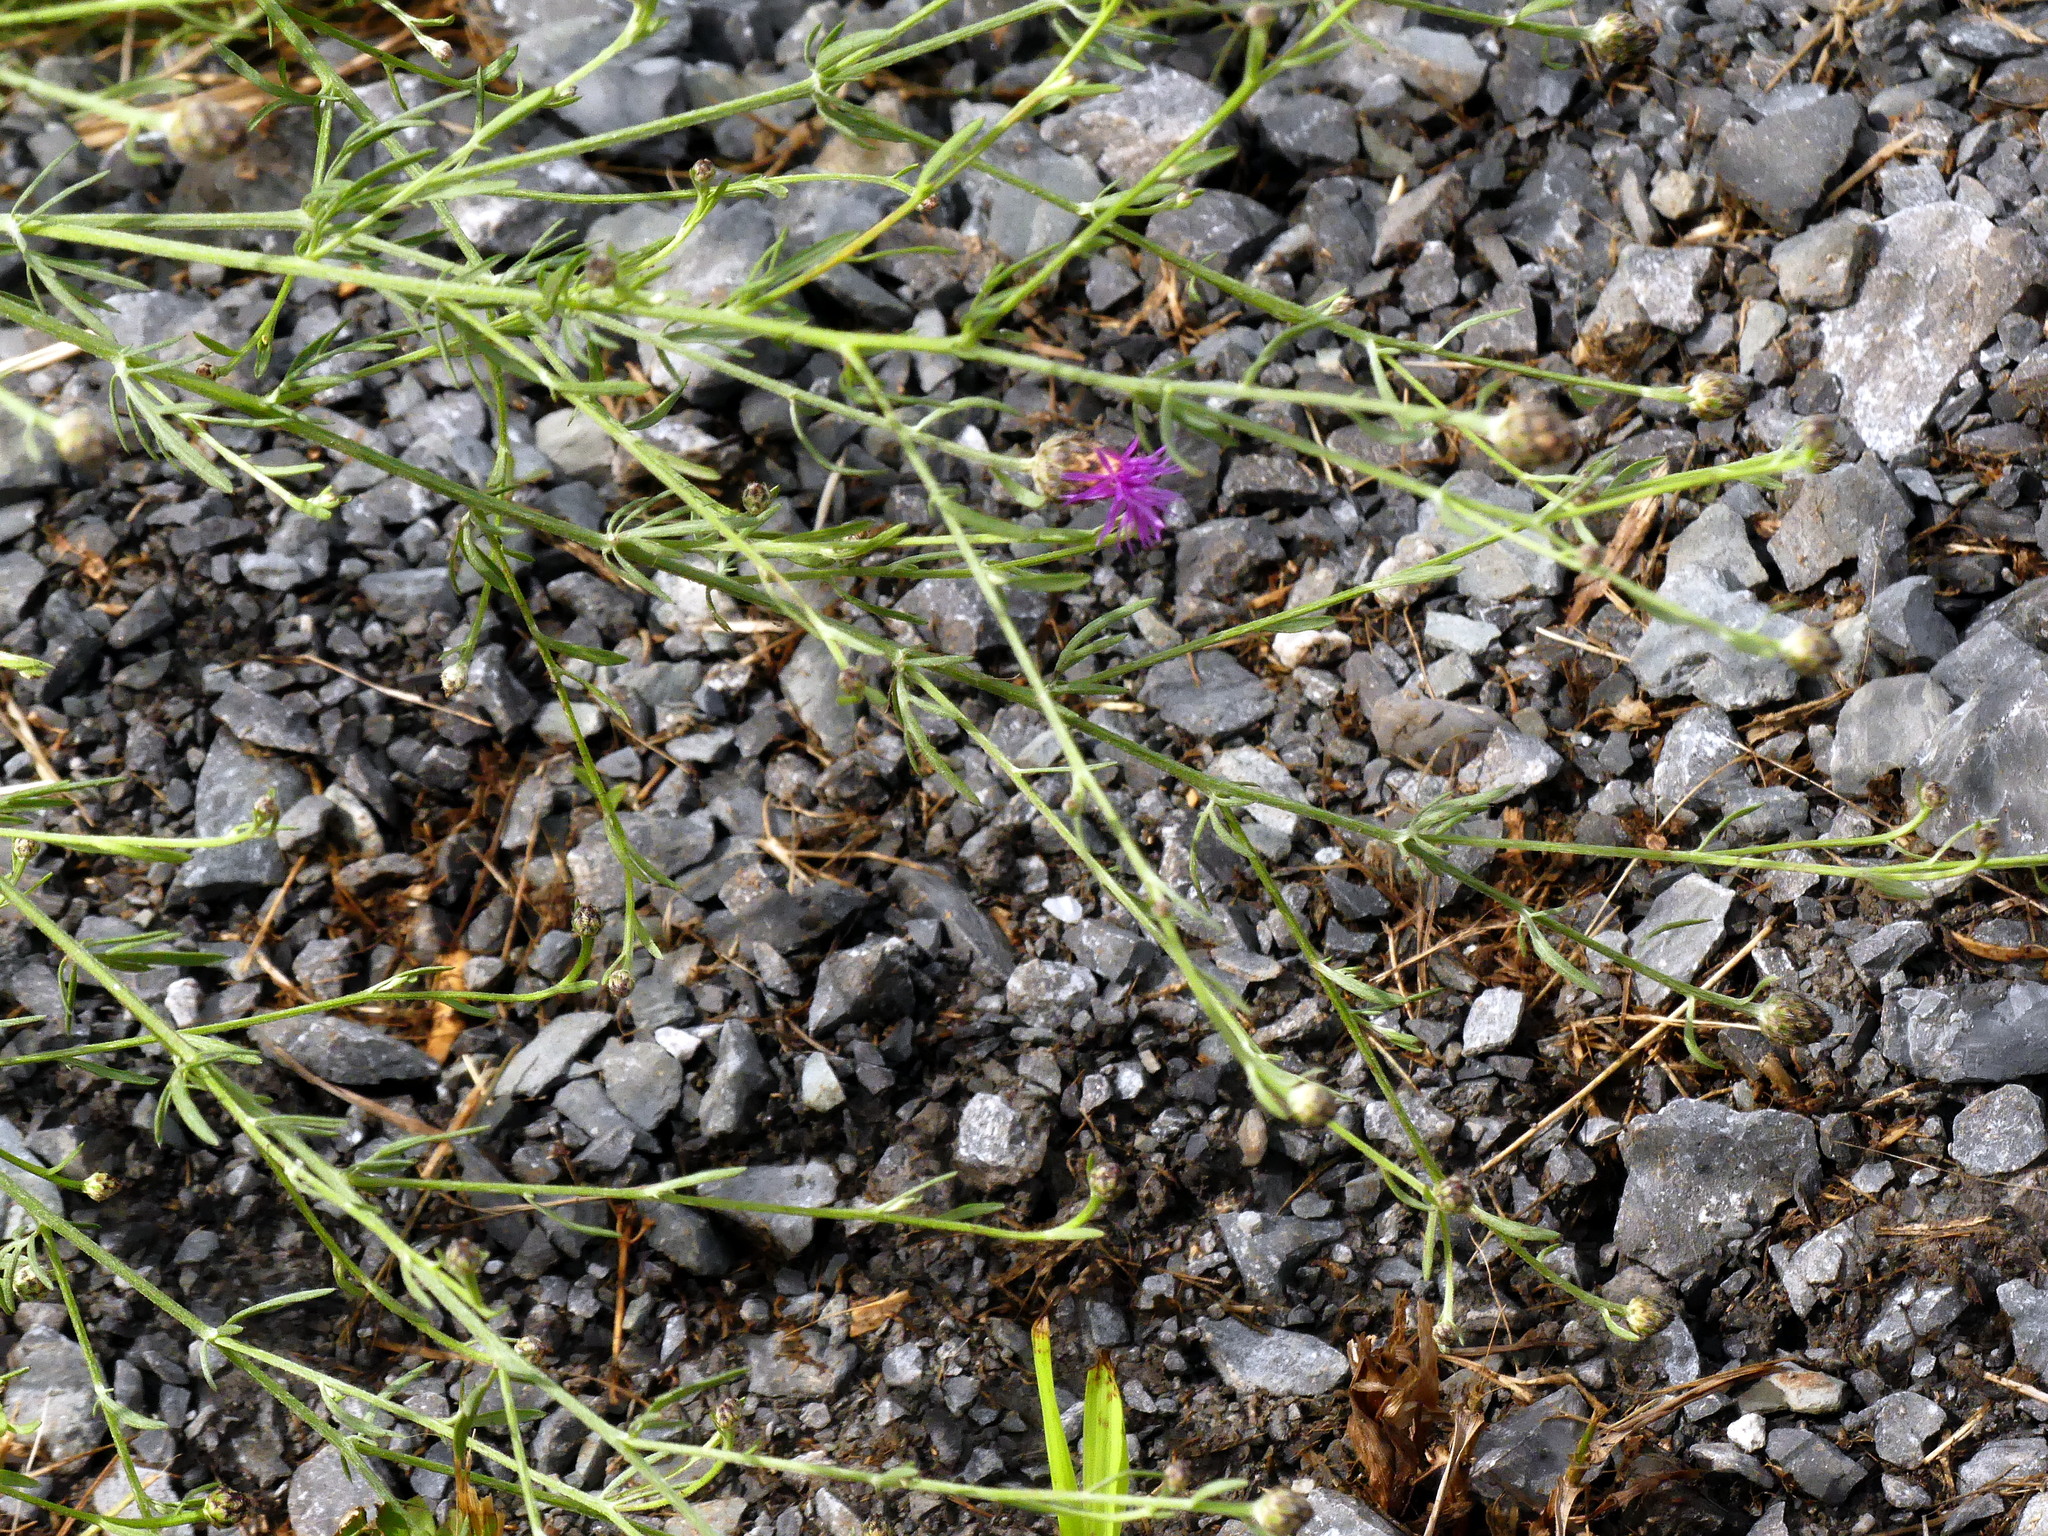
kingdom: Plantae
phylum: Tracheophyta
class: Magnoliopsida
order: Asterales
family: Asteraceae
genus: Centaurea
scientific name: Centaurea stoebe
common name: Spotted knapweed
